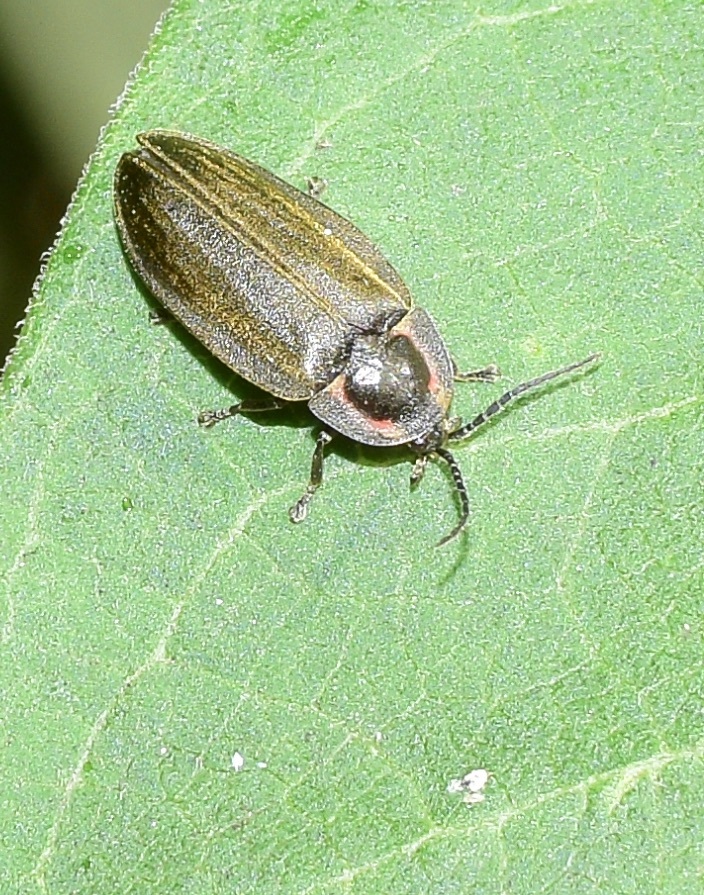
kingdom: Animalia
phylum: Arthropoda
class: Insecta
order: Coleoptera
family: Lampyridae
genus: Photinus
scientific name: Photinus corrusca
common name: Winter firefly
